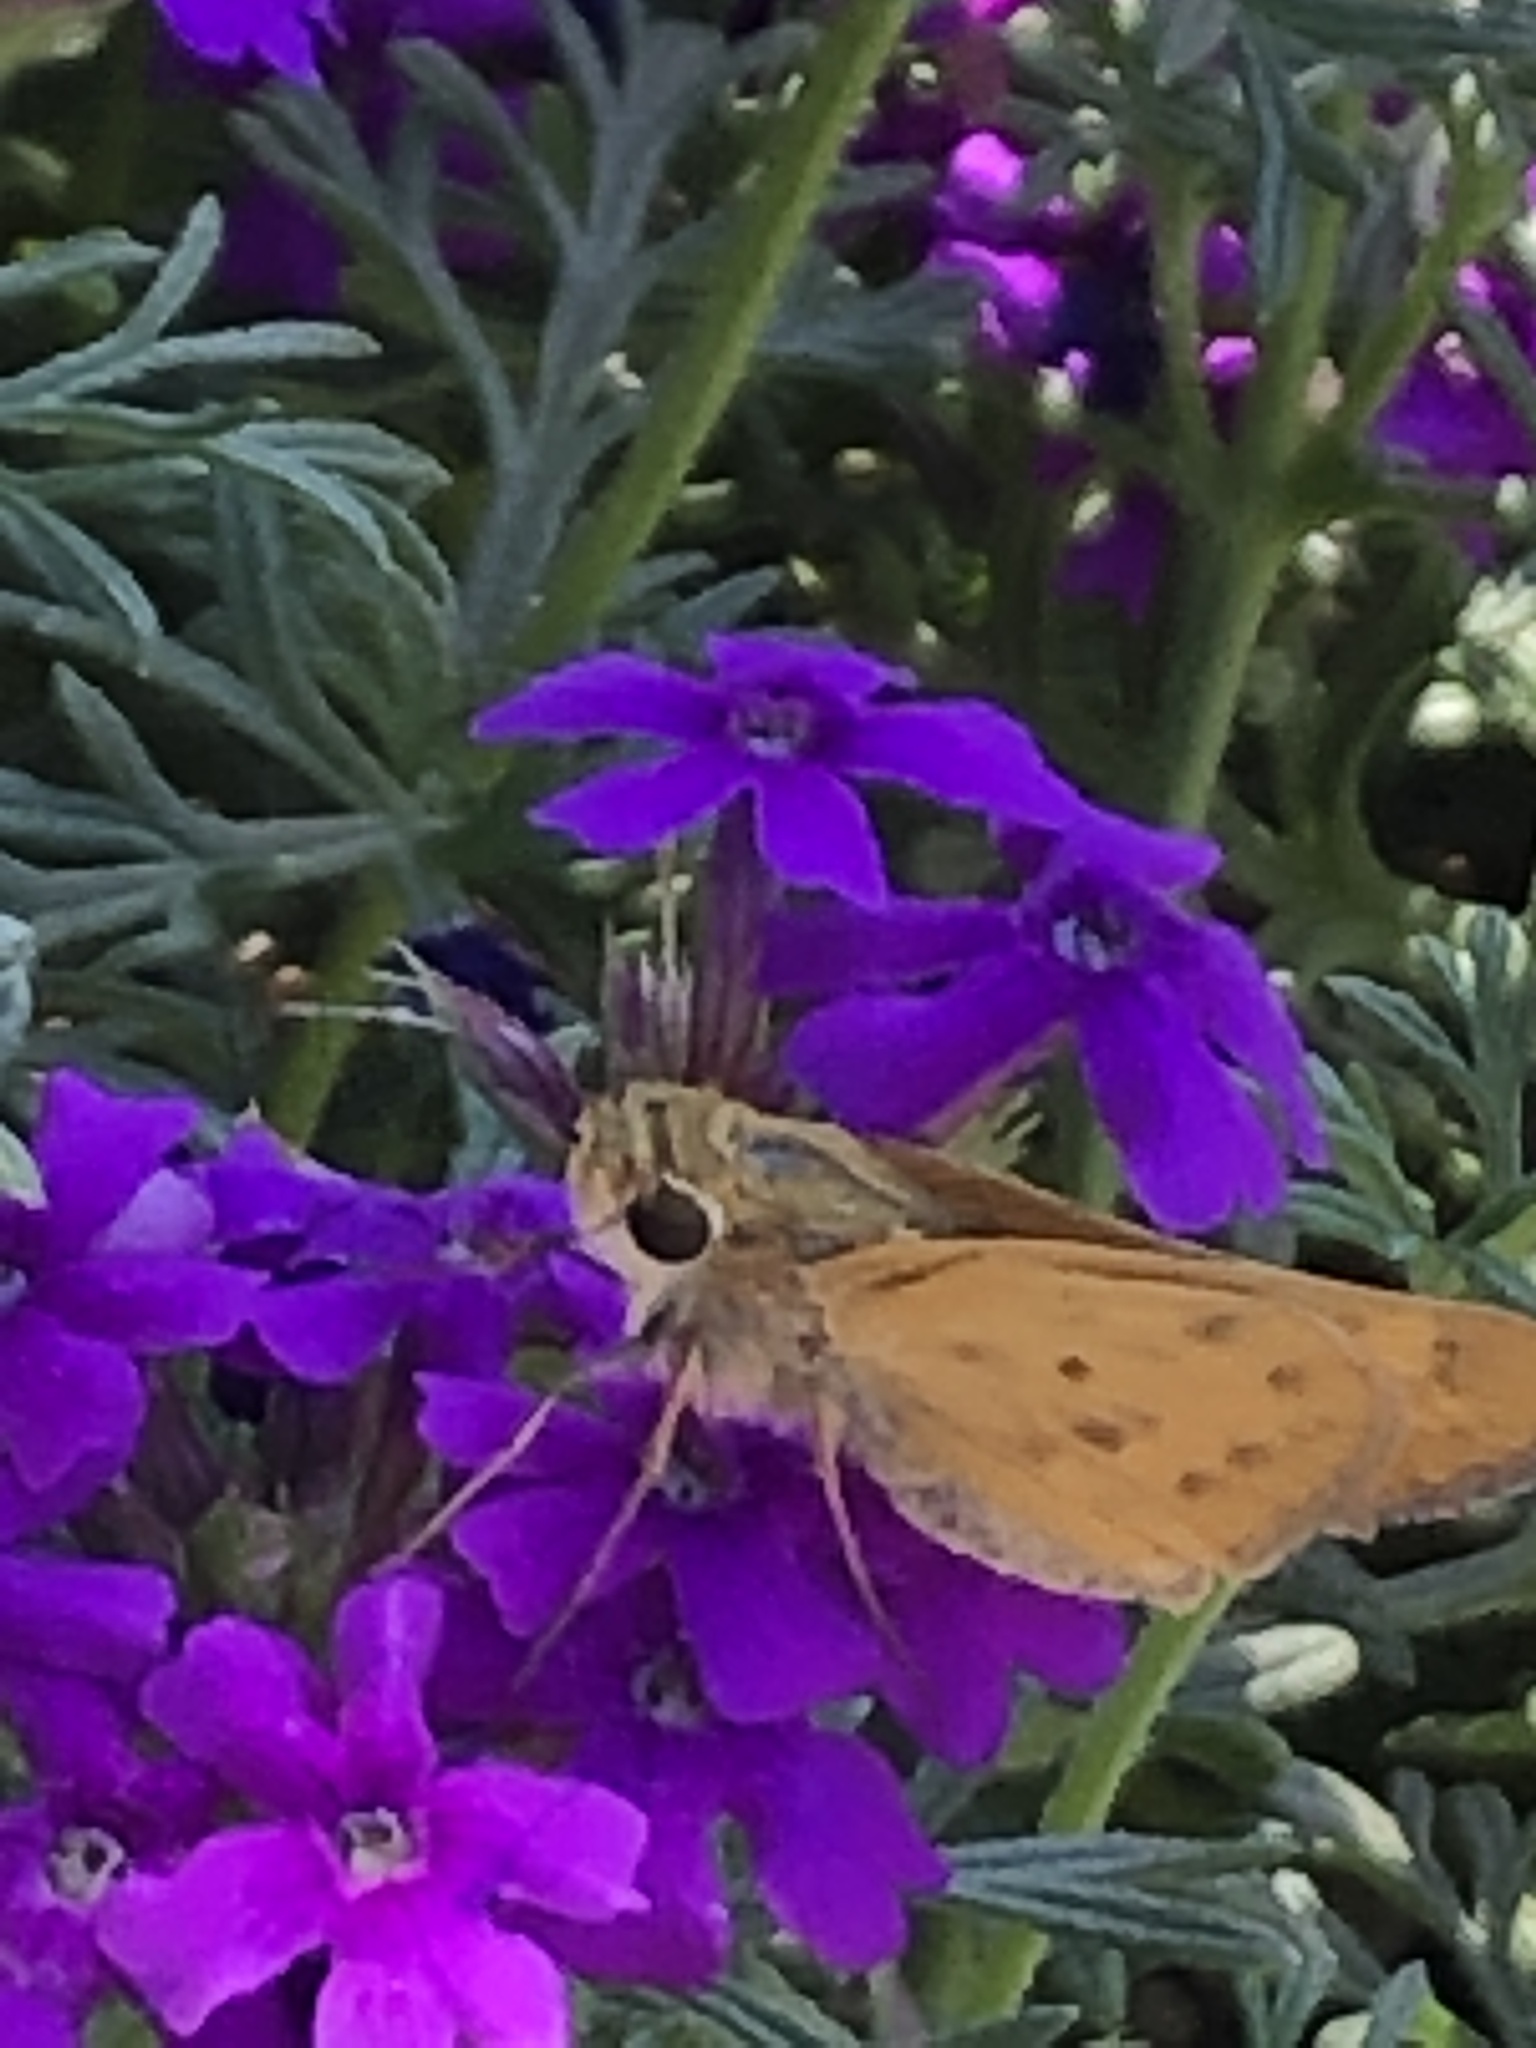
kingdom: Animalia
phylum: Arthropoda
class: Insecta
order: Lepidoptera
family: Hesperiidae
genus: Hylephila
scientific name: Hylephila phyleus
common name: Fiery skipper
